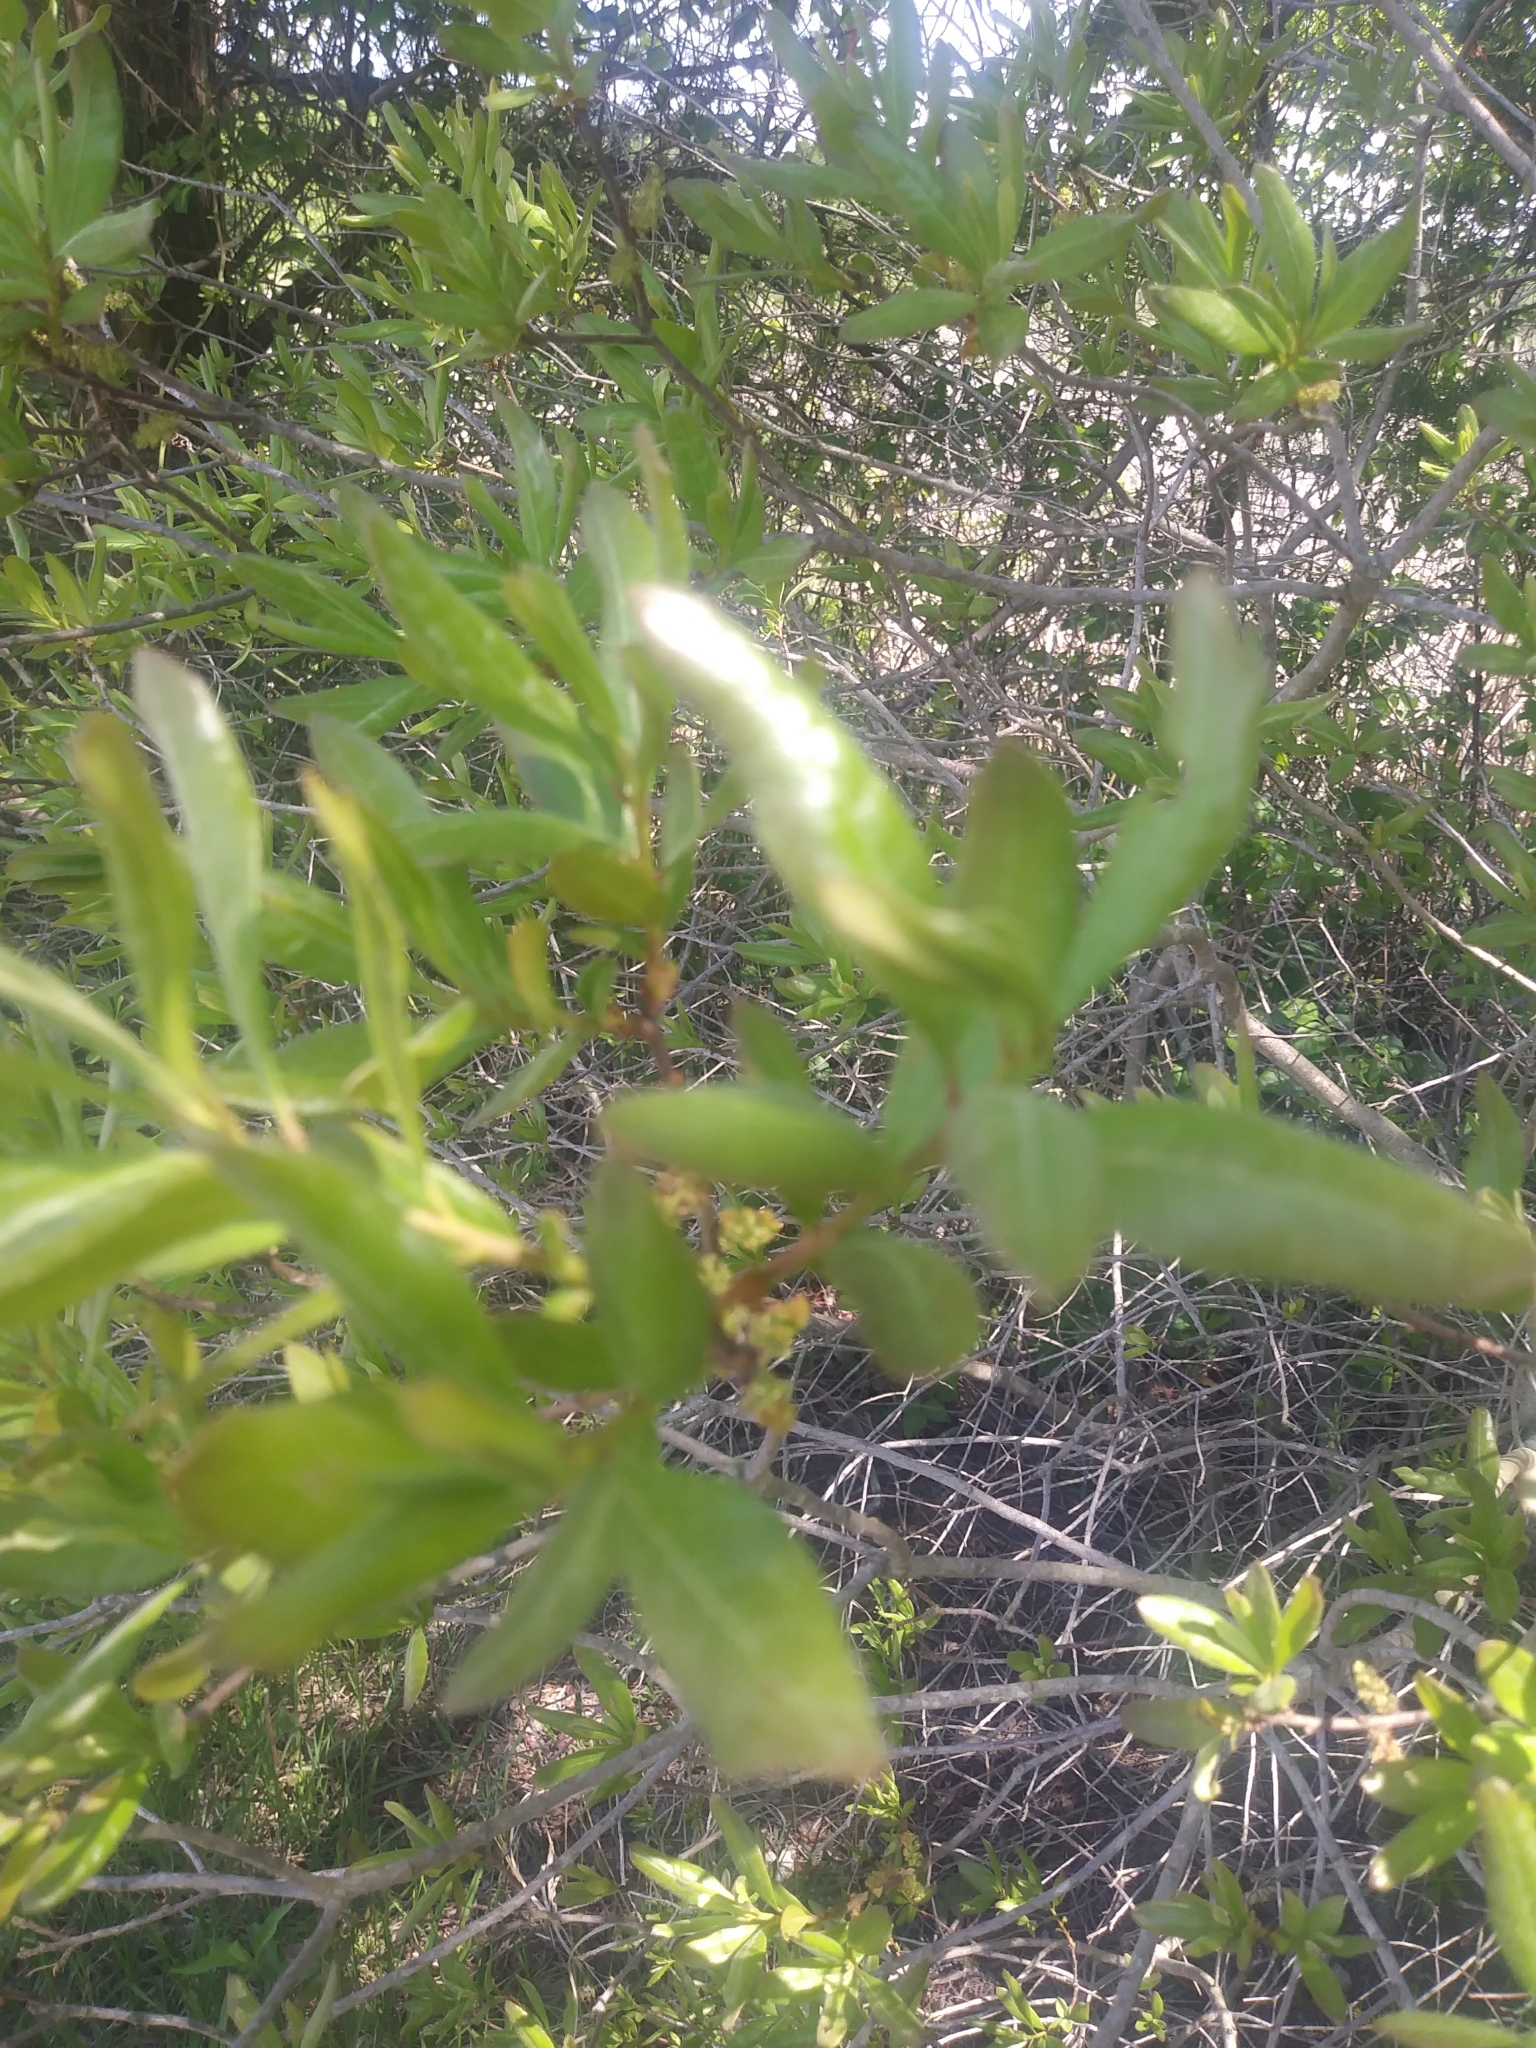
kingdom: Plantae
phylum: Tracheophyta
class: Magnoliopsida
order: Fagales
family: Myricaceae
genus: Morella
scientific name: Morella pensylvanica
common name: Northern bayberry
